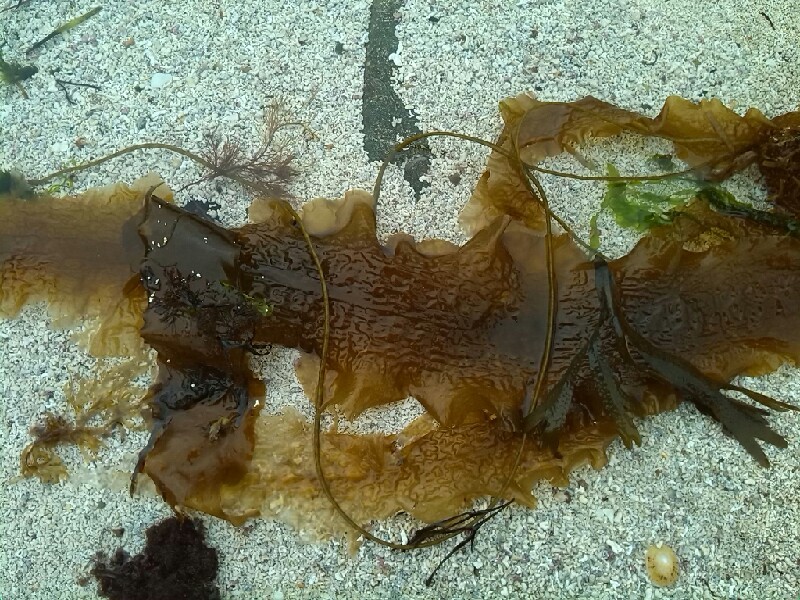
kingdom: Chromista
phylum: Ochrophyta
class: Phaeophyceae
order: Laminariales
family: Laminariaceae
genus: Saccharina
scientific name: Saccharina latissima
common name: Poor man's weather glass
